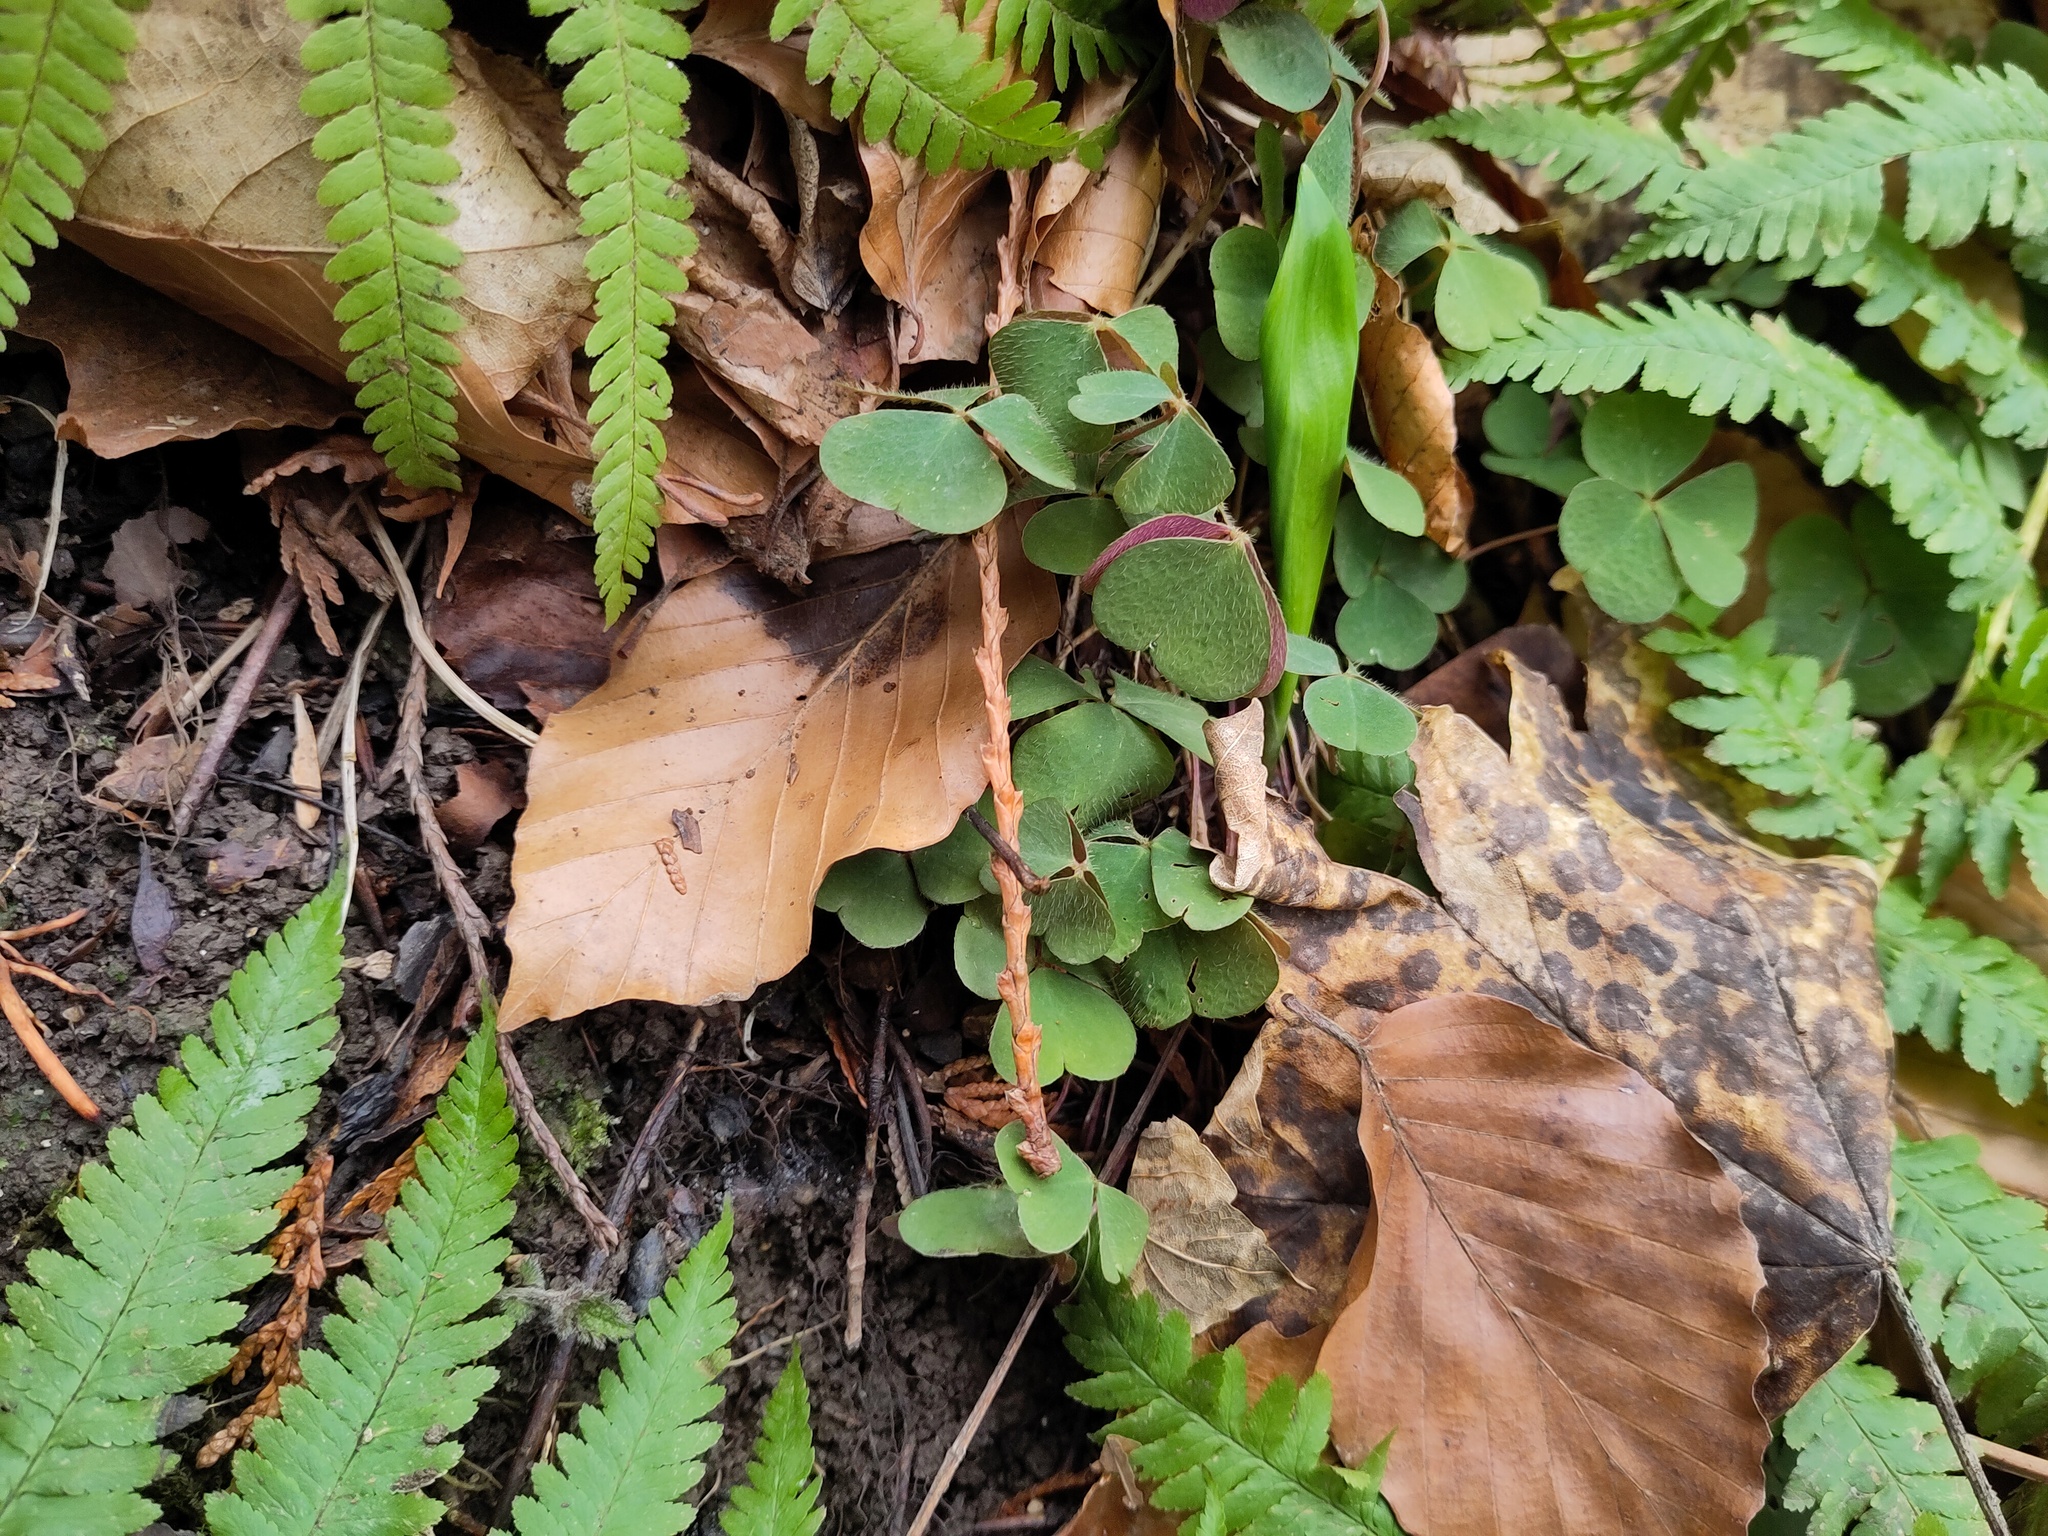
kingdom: Plantae
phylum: Tracheophyta
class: Magnoliopsida
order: Oxalidales
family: Oxalidaceae
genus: Oxalis
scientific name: Oxalis acetosella
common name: Wood-sorrel
